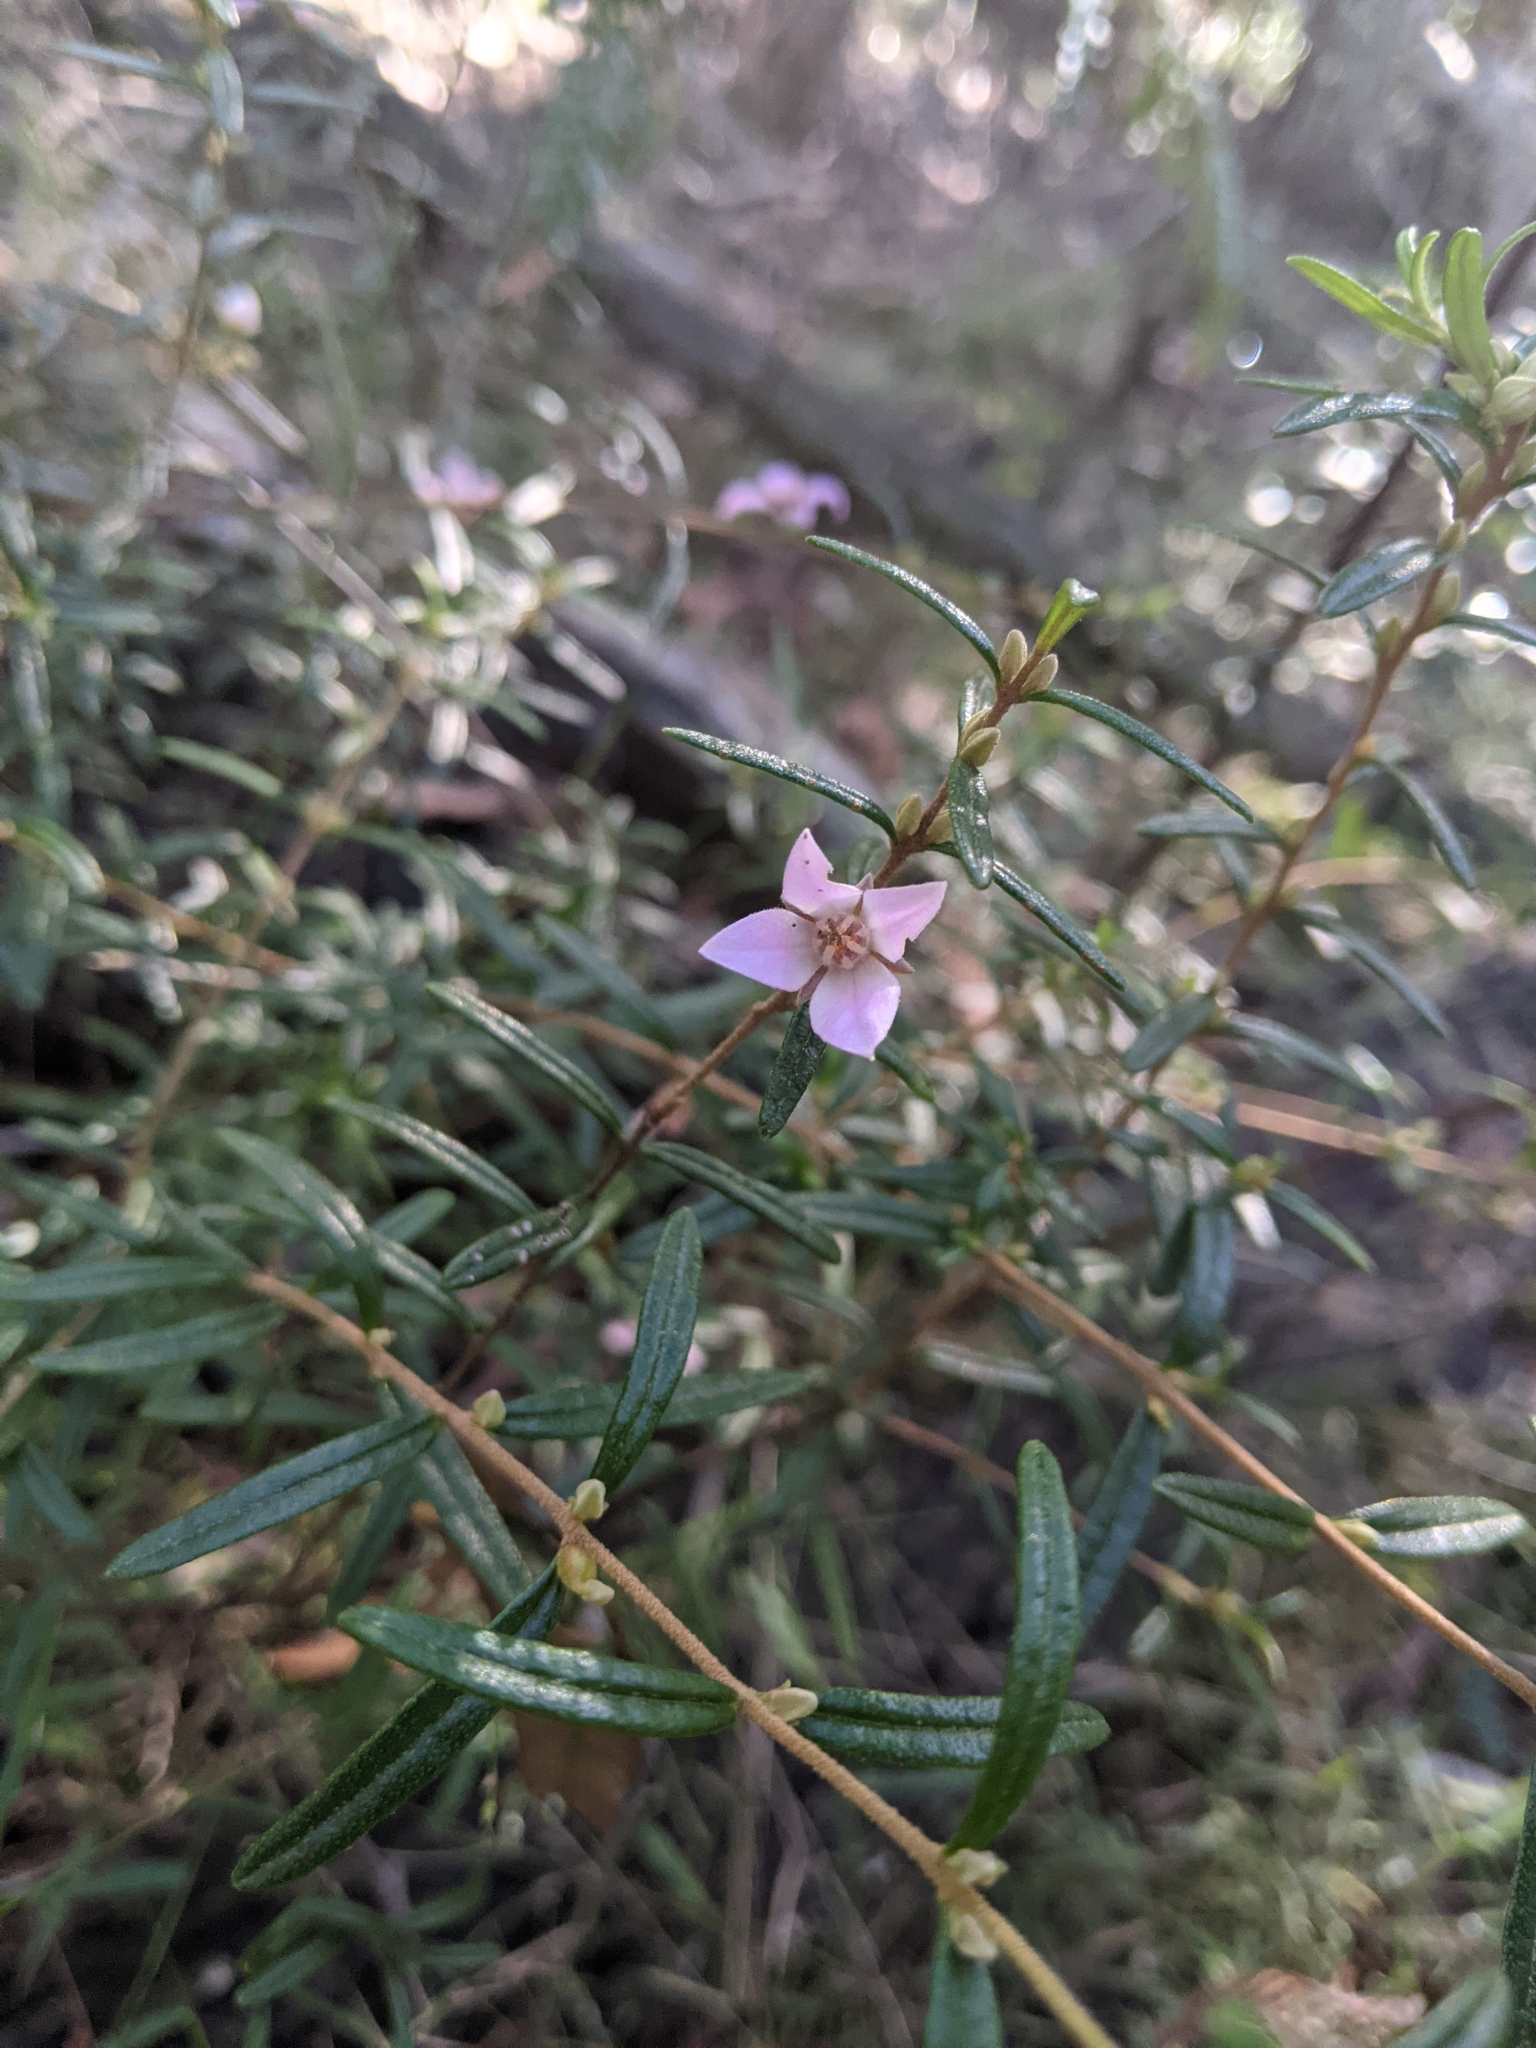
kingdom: Plantae
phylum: Tracheophyta
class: Magnoliopsida
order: Sapindales
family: Rutaceae
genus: Boronia
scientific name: Boronia rosmarinifolia
